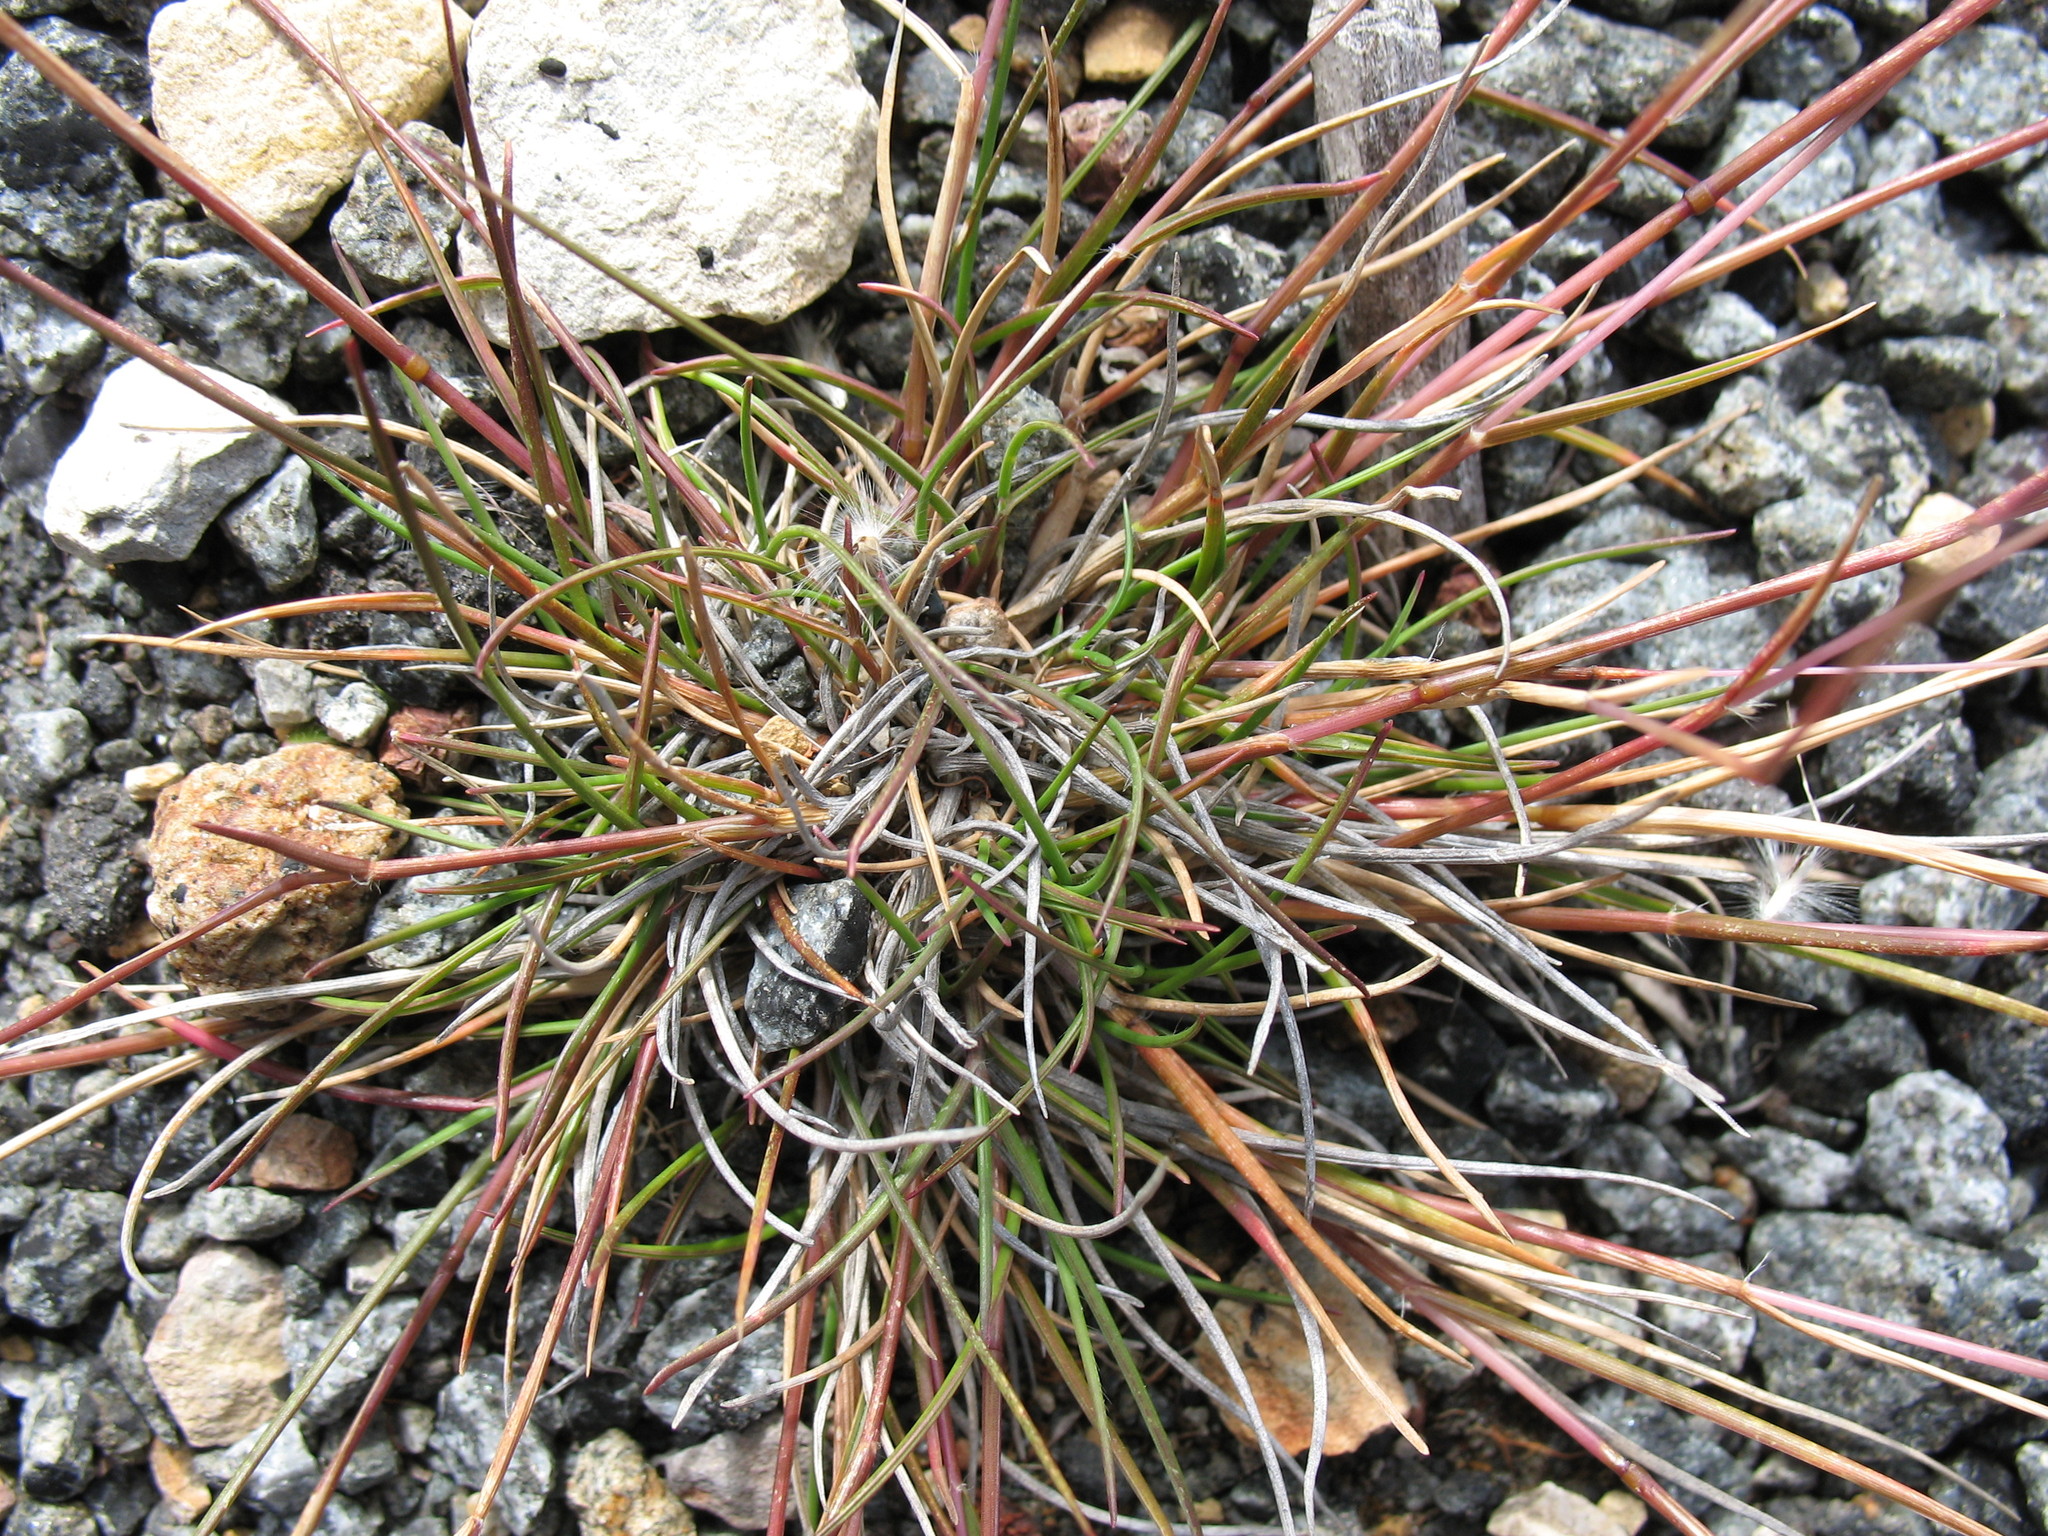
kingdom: Plantae
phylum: Tracheophyta
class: Liliopsida
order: Poales
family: Poaceae
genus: Rytidosperma
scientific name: Rytidosperma fortunae-hibernae
